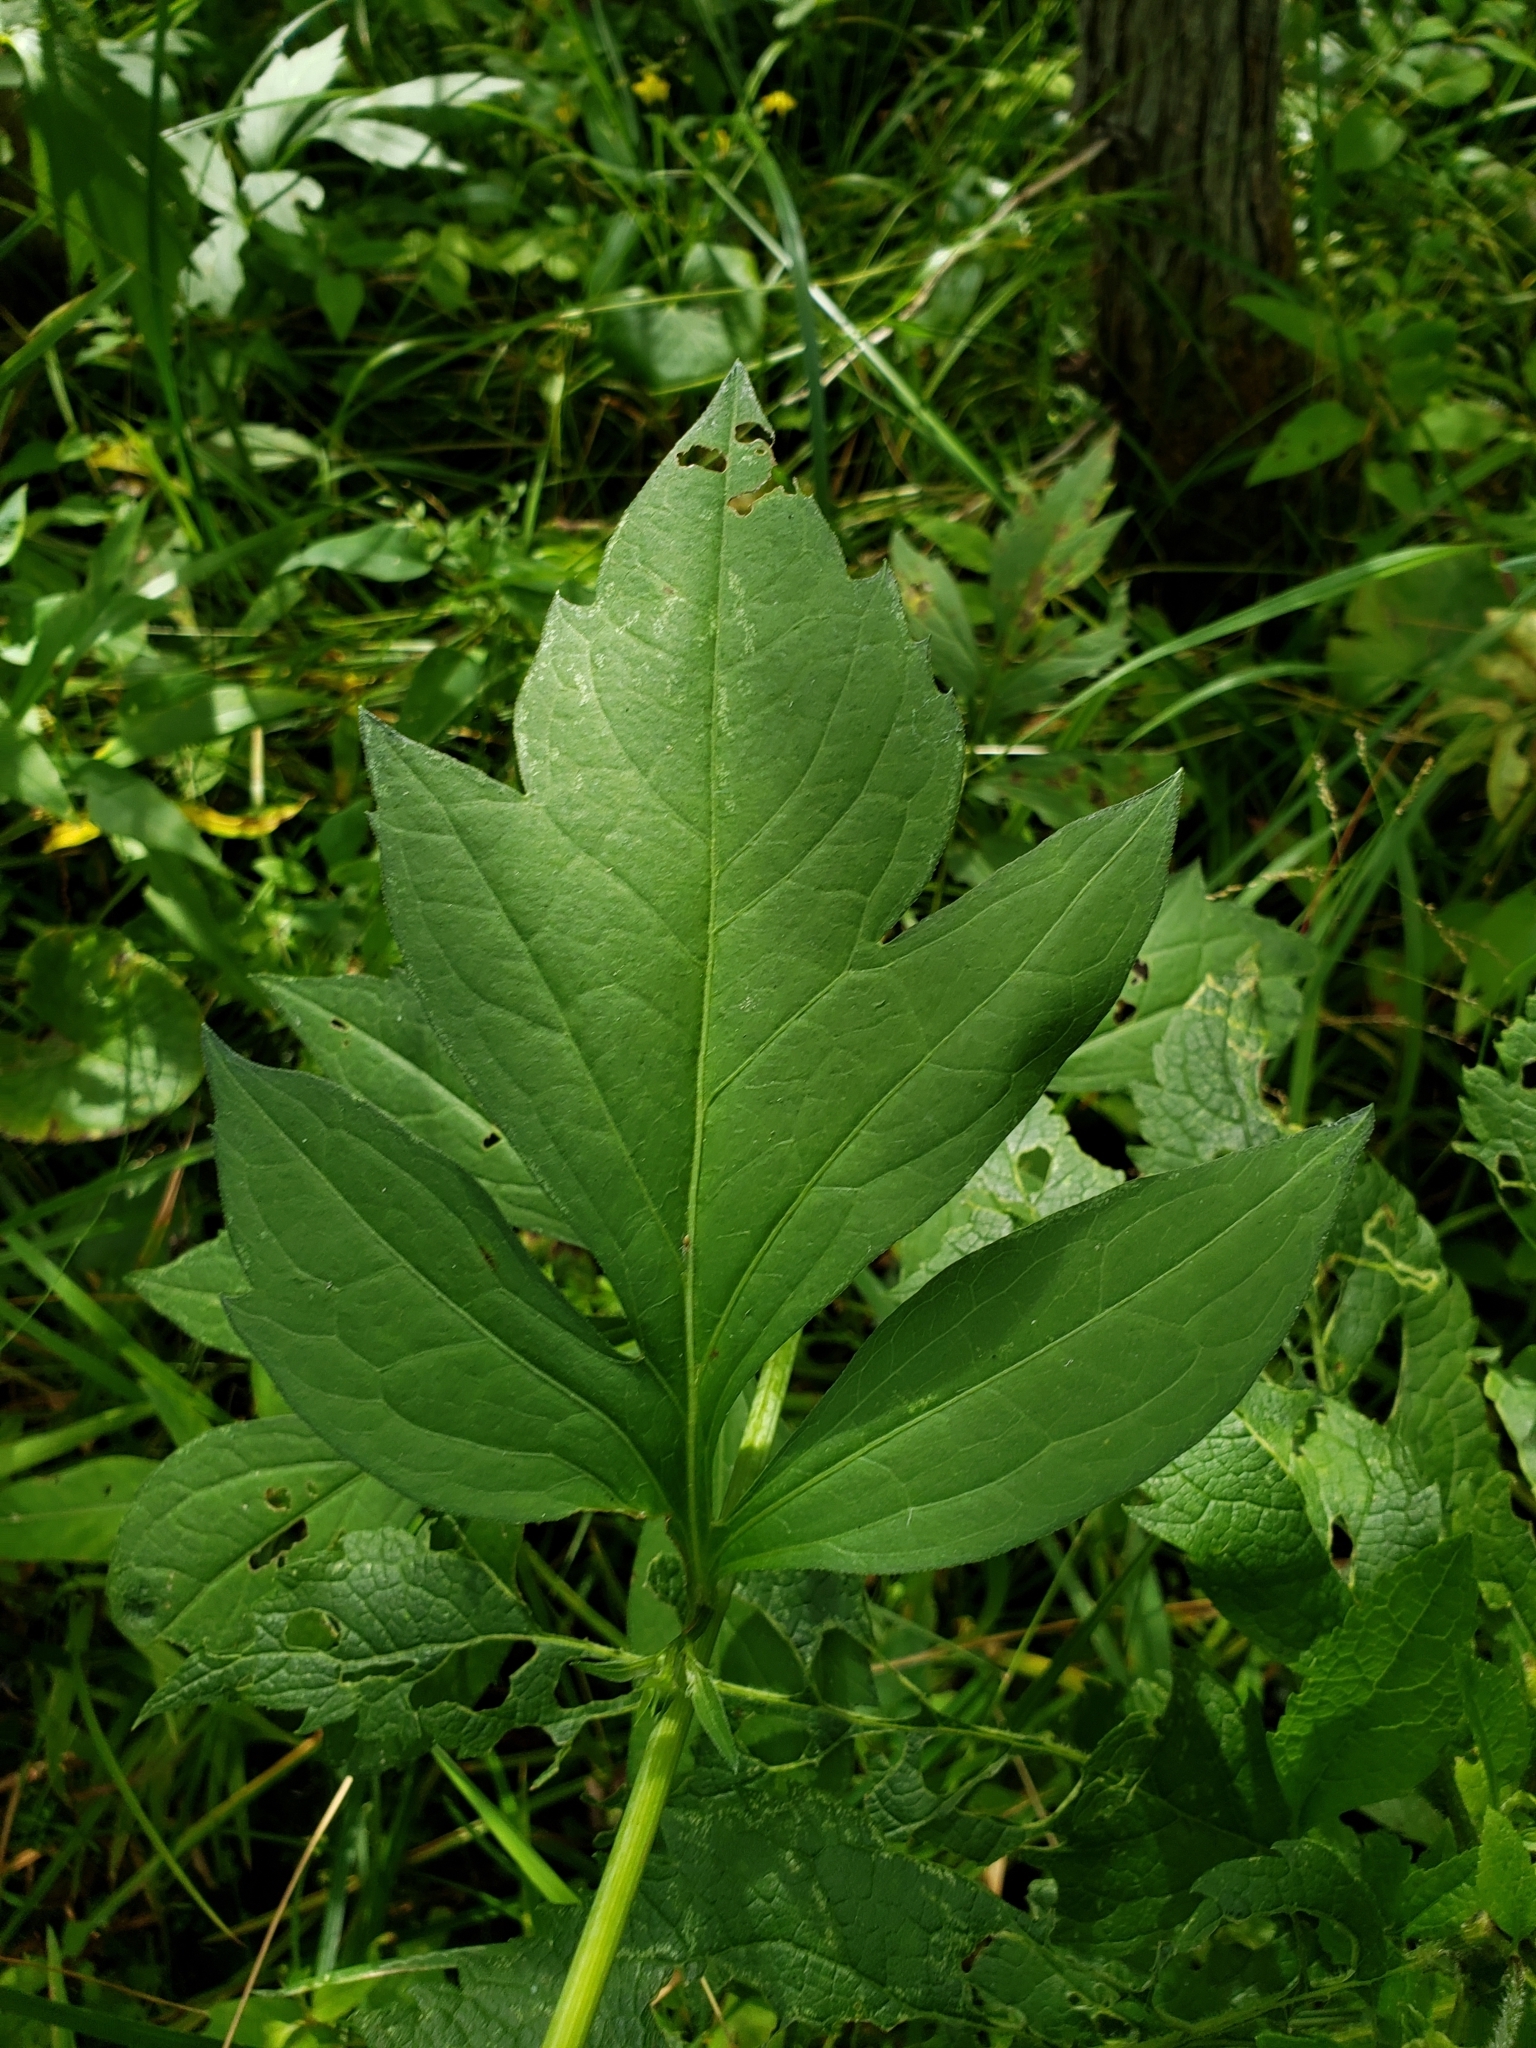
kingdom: Plantae
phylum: Tracheophyta
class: Magnoliopsida
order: Asterales
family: Asteraceae
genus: Rudbeckia
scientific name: Rudbeckia laciniata
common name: Coneflower
